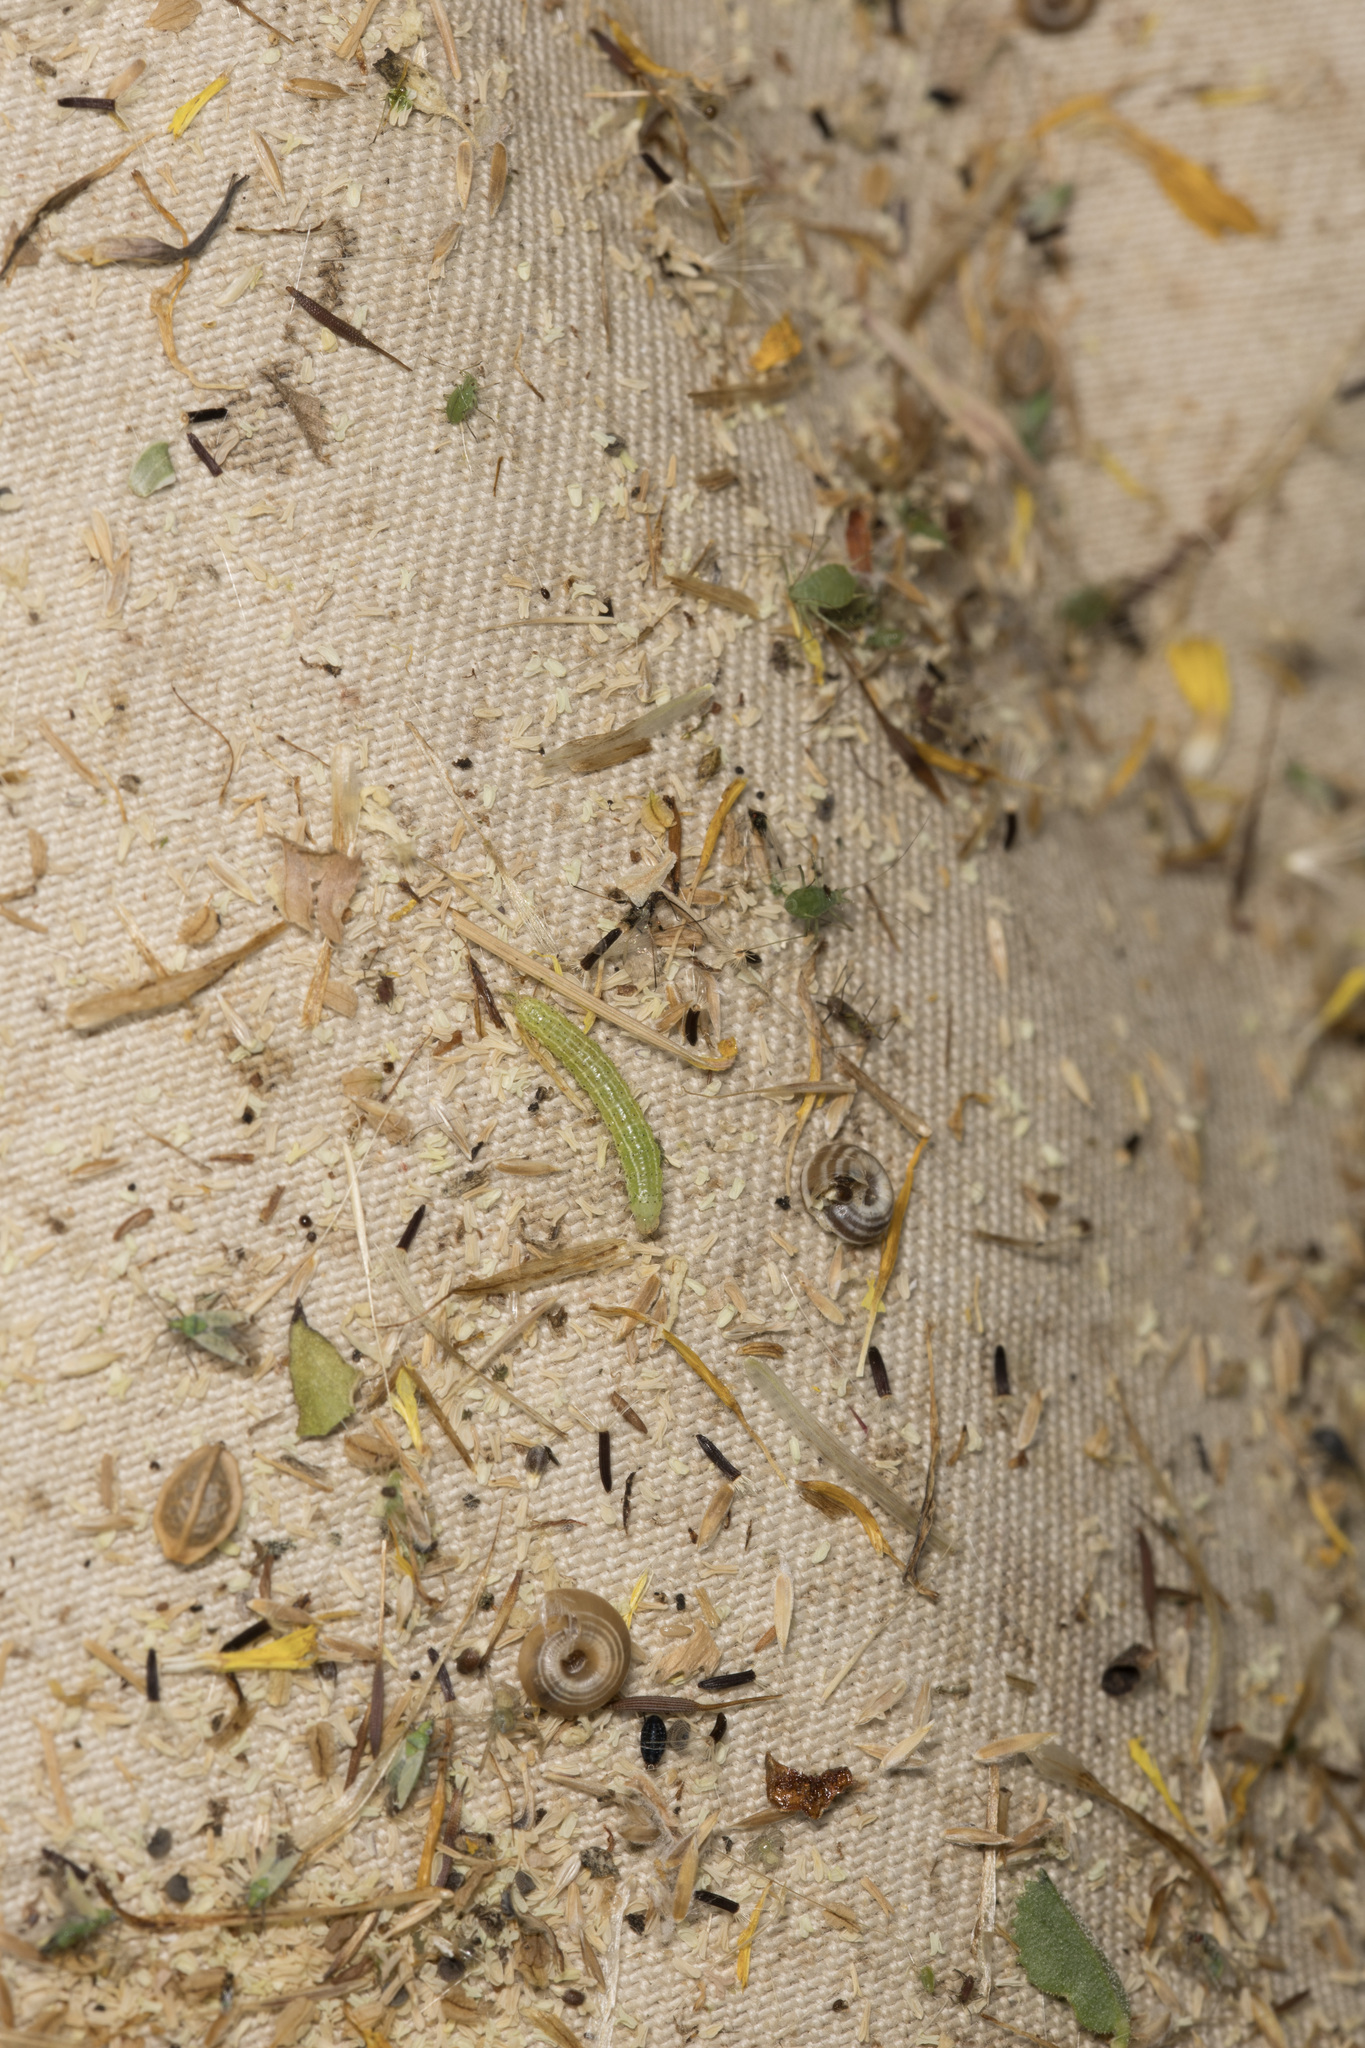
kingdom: Animalia
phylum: Mollusca
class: Gastropoda
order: Stylommatophora
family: Geomitridae
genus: Helicella
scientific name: Helicella itala
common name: Heath snail
